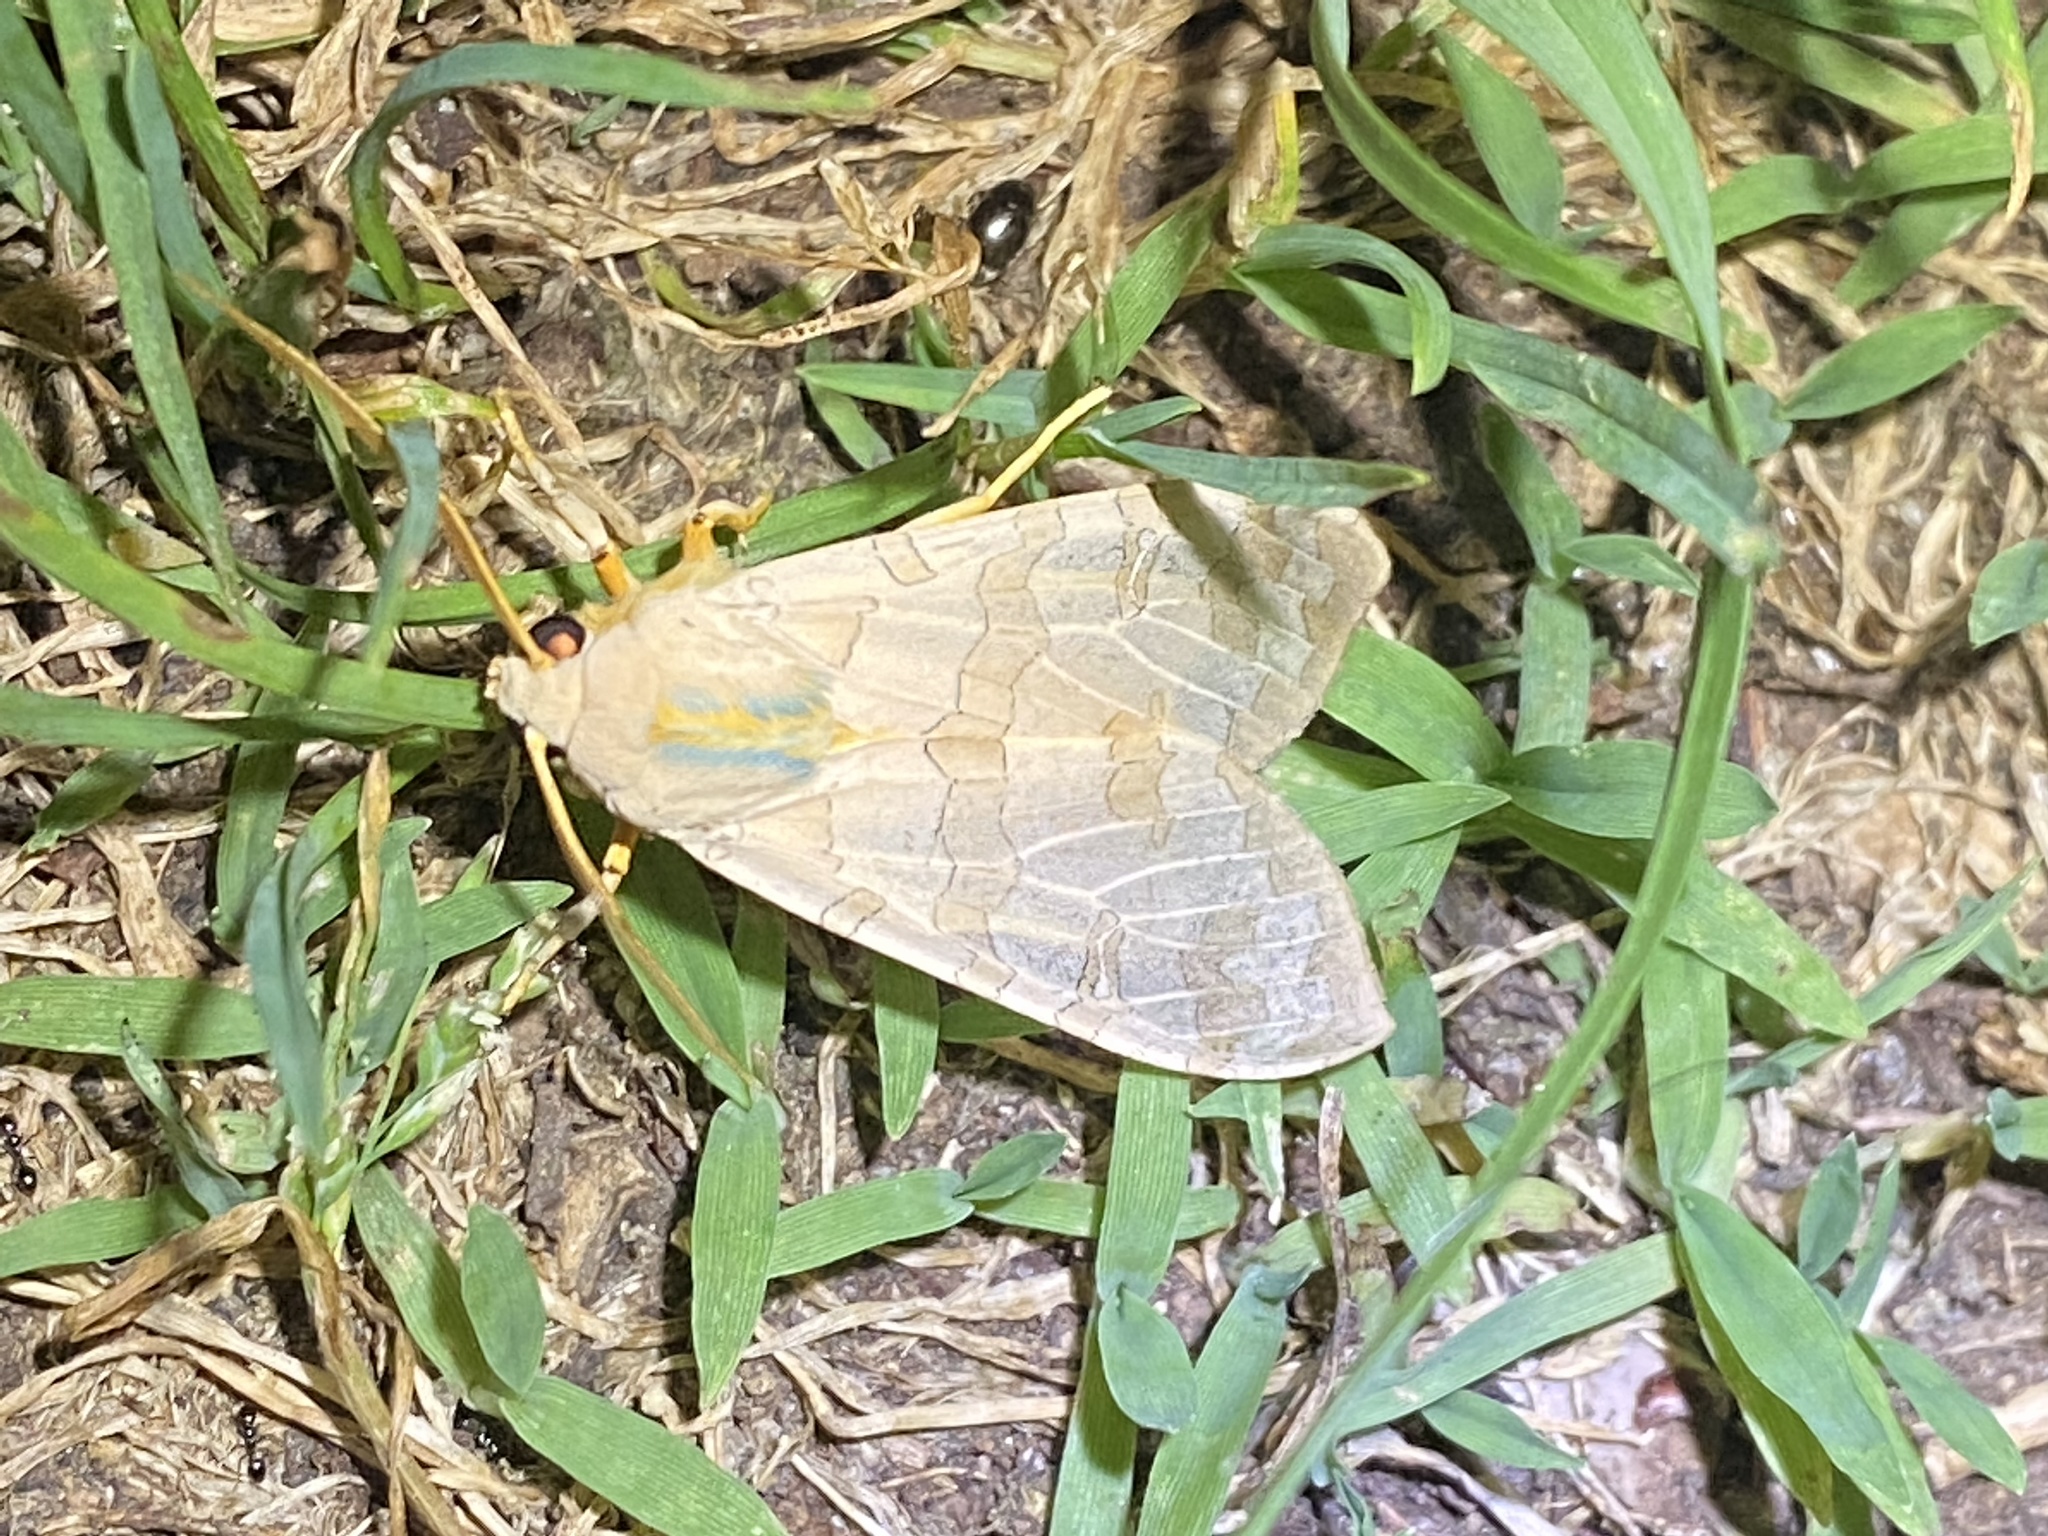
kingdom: Animalia
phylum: Arthropoda
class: Insecta
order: Lepidoptera
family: Erebidae
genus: Halysidota
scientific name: Halysidota
